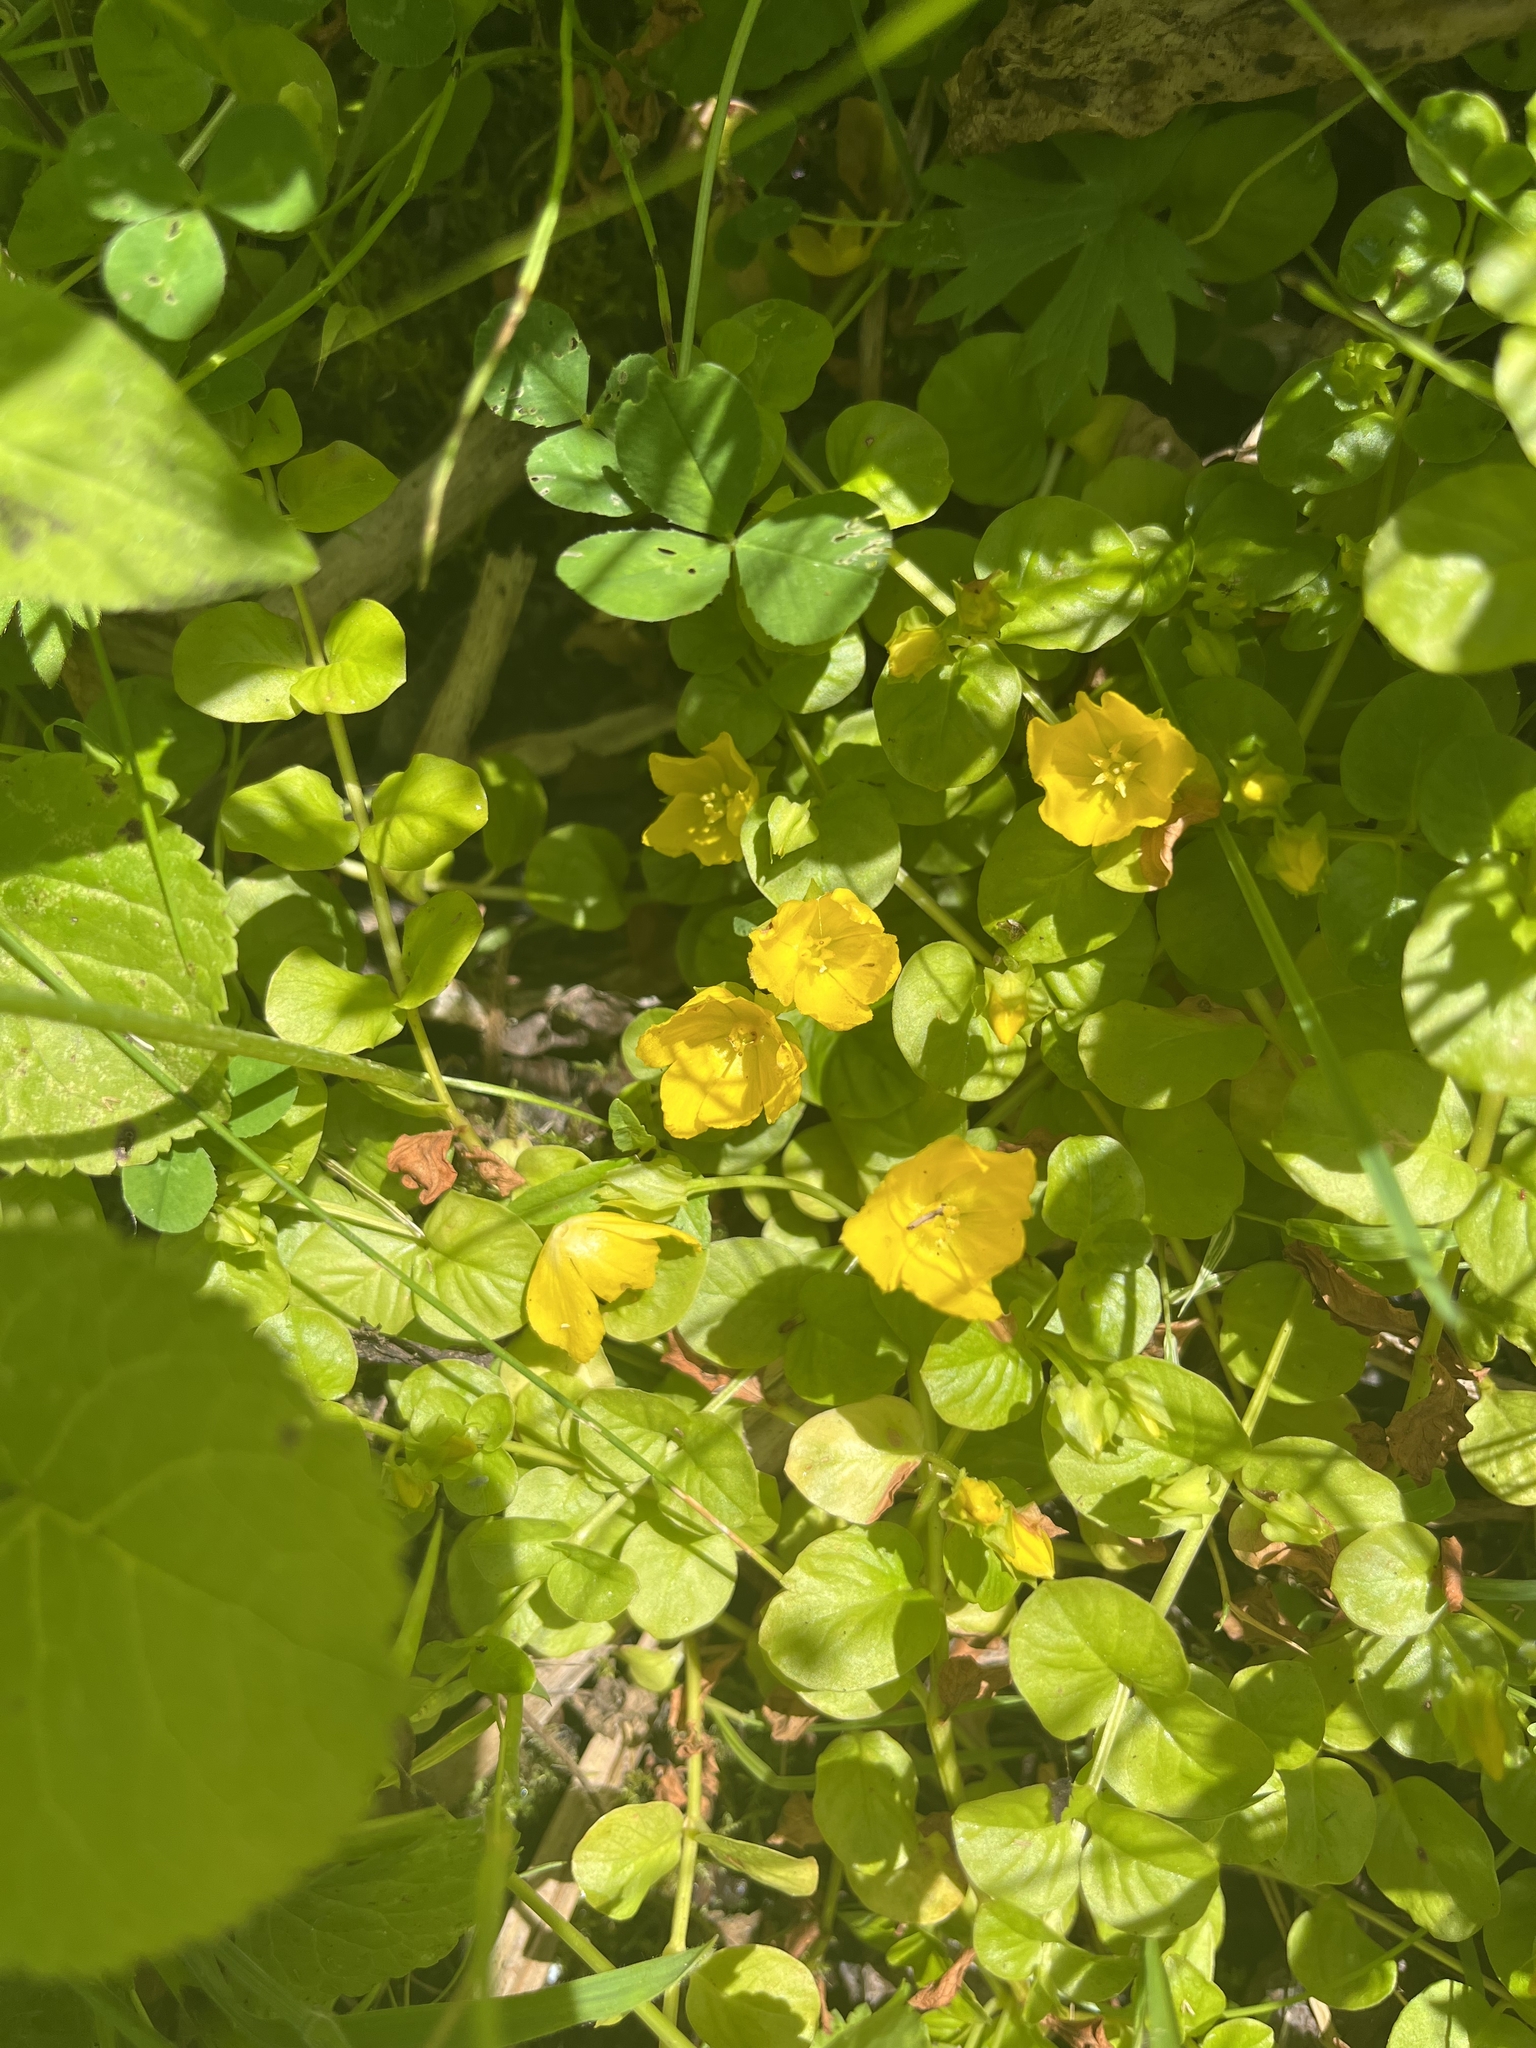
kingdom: Plantae
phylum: Tracheophyta
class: Magnoliopsida
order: Ericales
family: Primulaceae
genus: Lysimachia
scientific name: Lysimachia nummularia
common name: Moneywort
